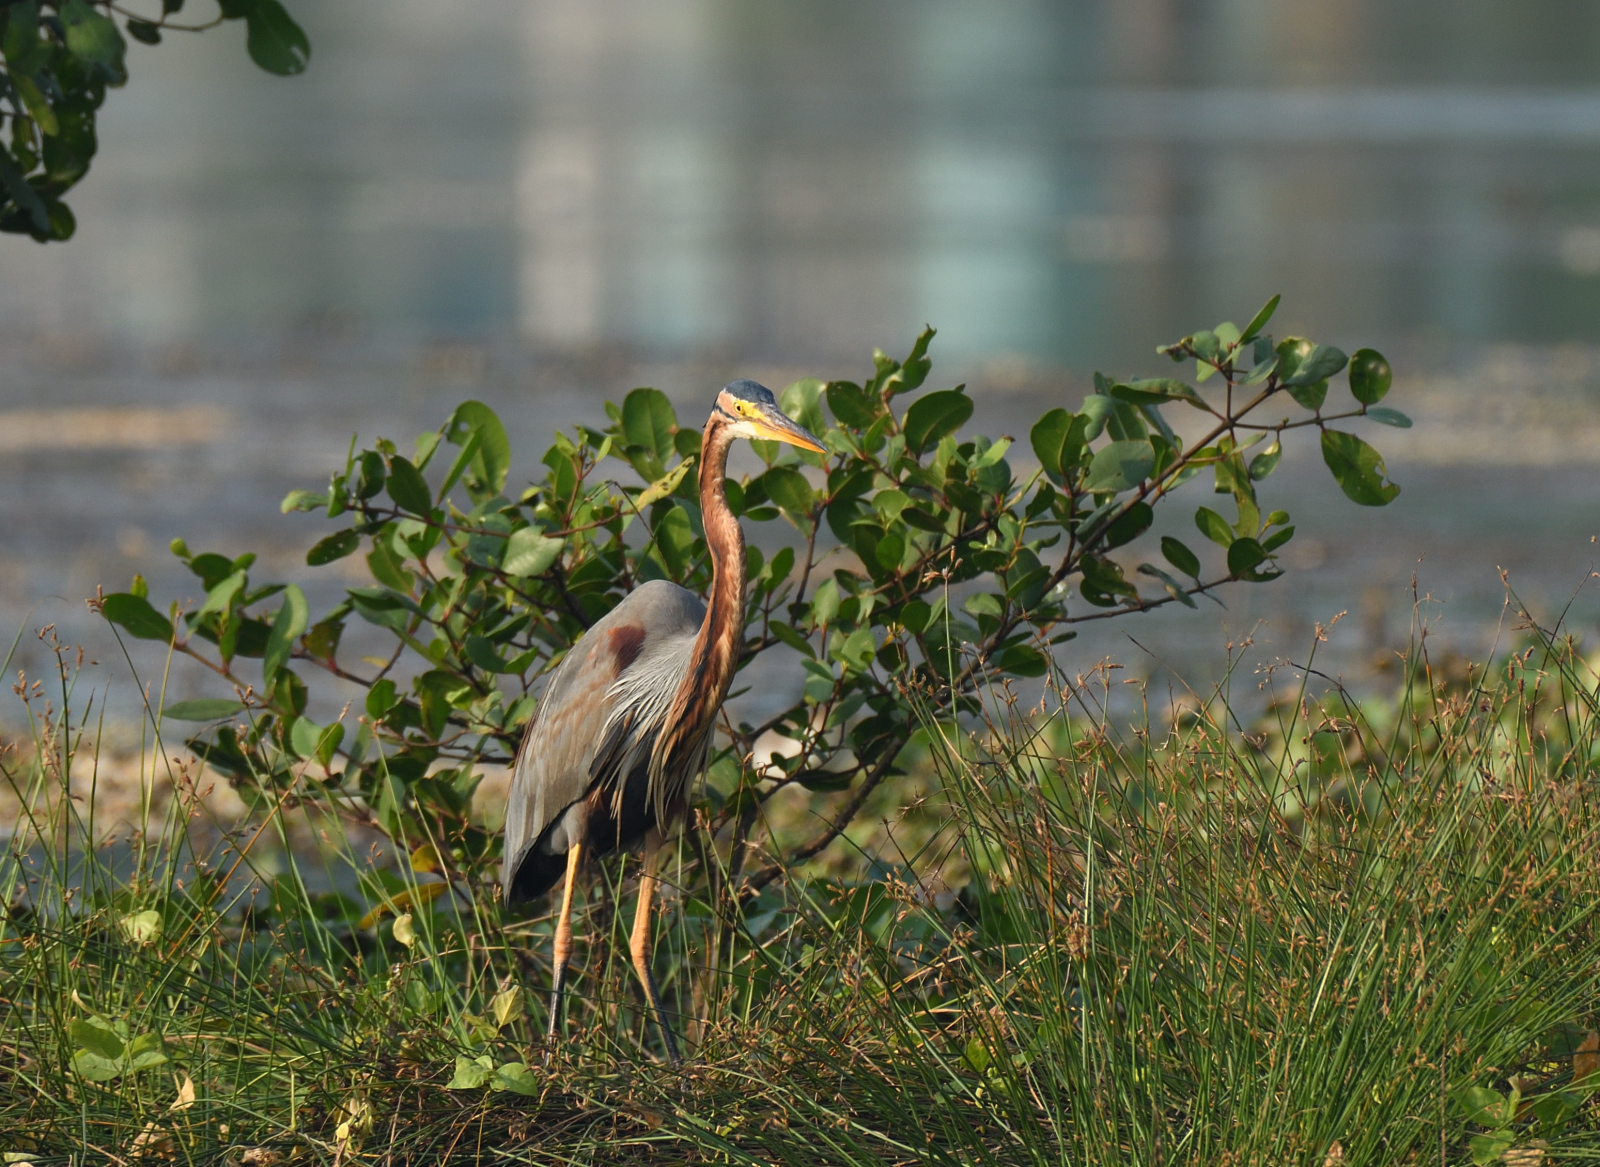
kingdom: Animalia
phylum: Chordata
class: Aves
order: Pelecaniformes
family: Ardeidae
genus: Ardea
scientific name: Ardea purpurea
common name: Purple heron
